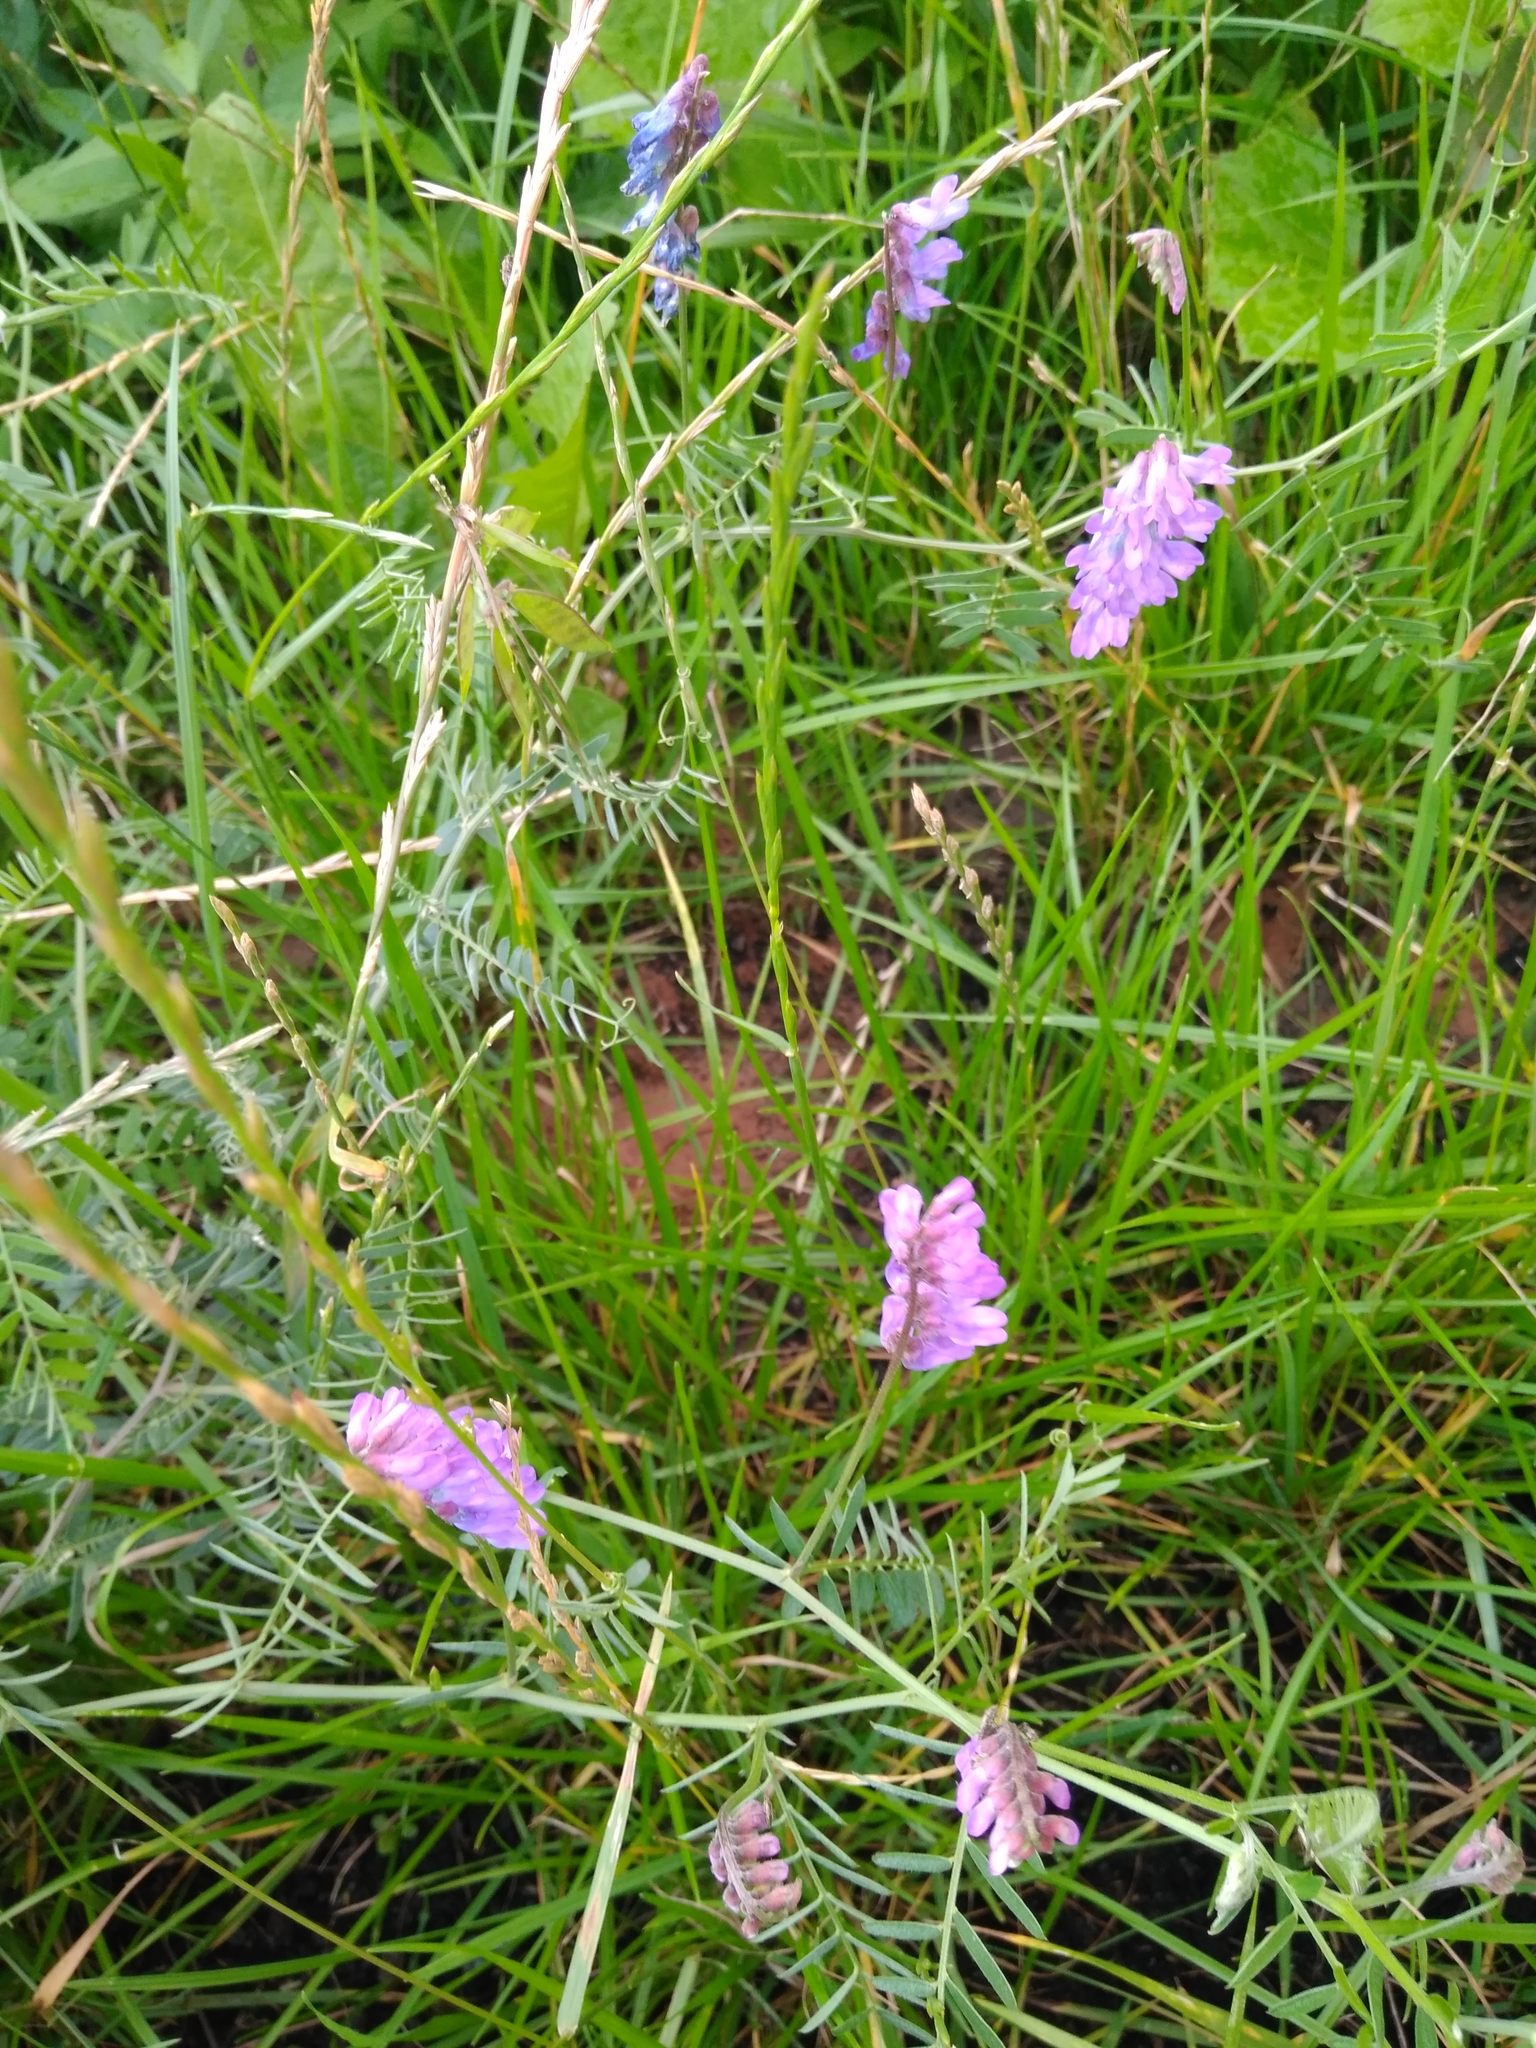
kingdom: Plantae
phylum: Tracheophyta
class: Magnoliopsida
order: Fabales
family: Fabaceae
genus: Vicia
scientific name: Vicia cracca
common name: Bird vetch
